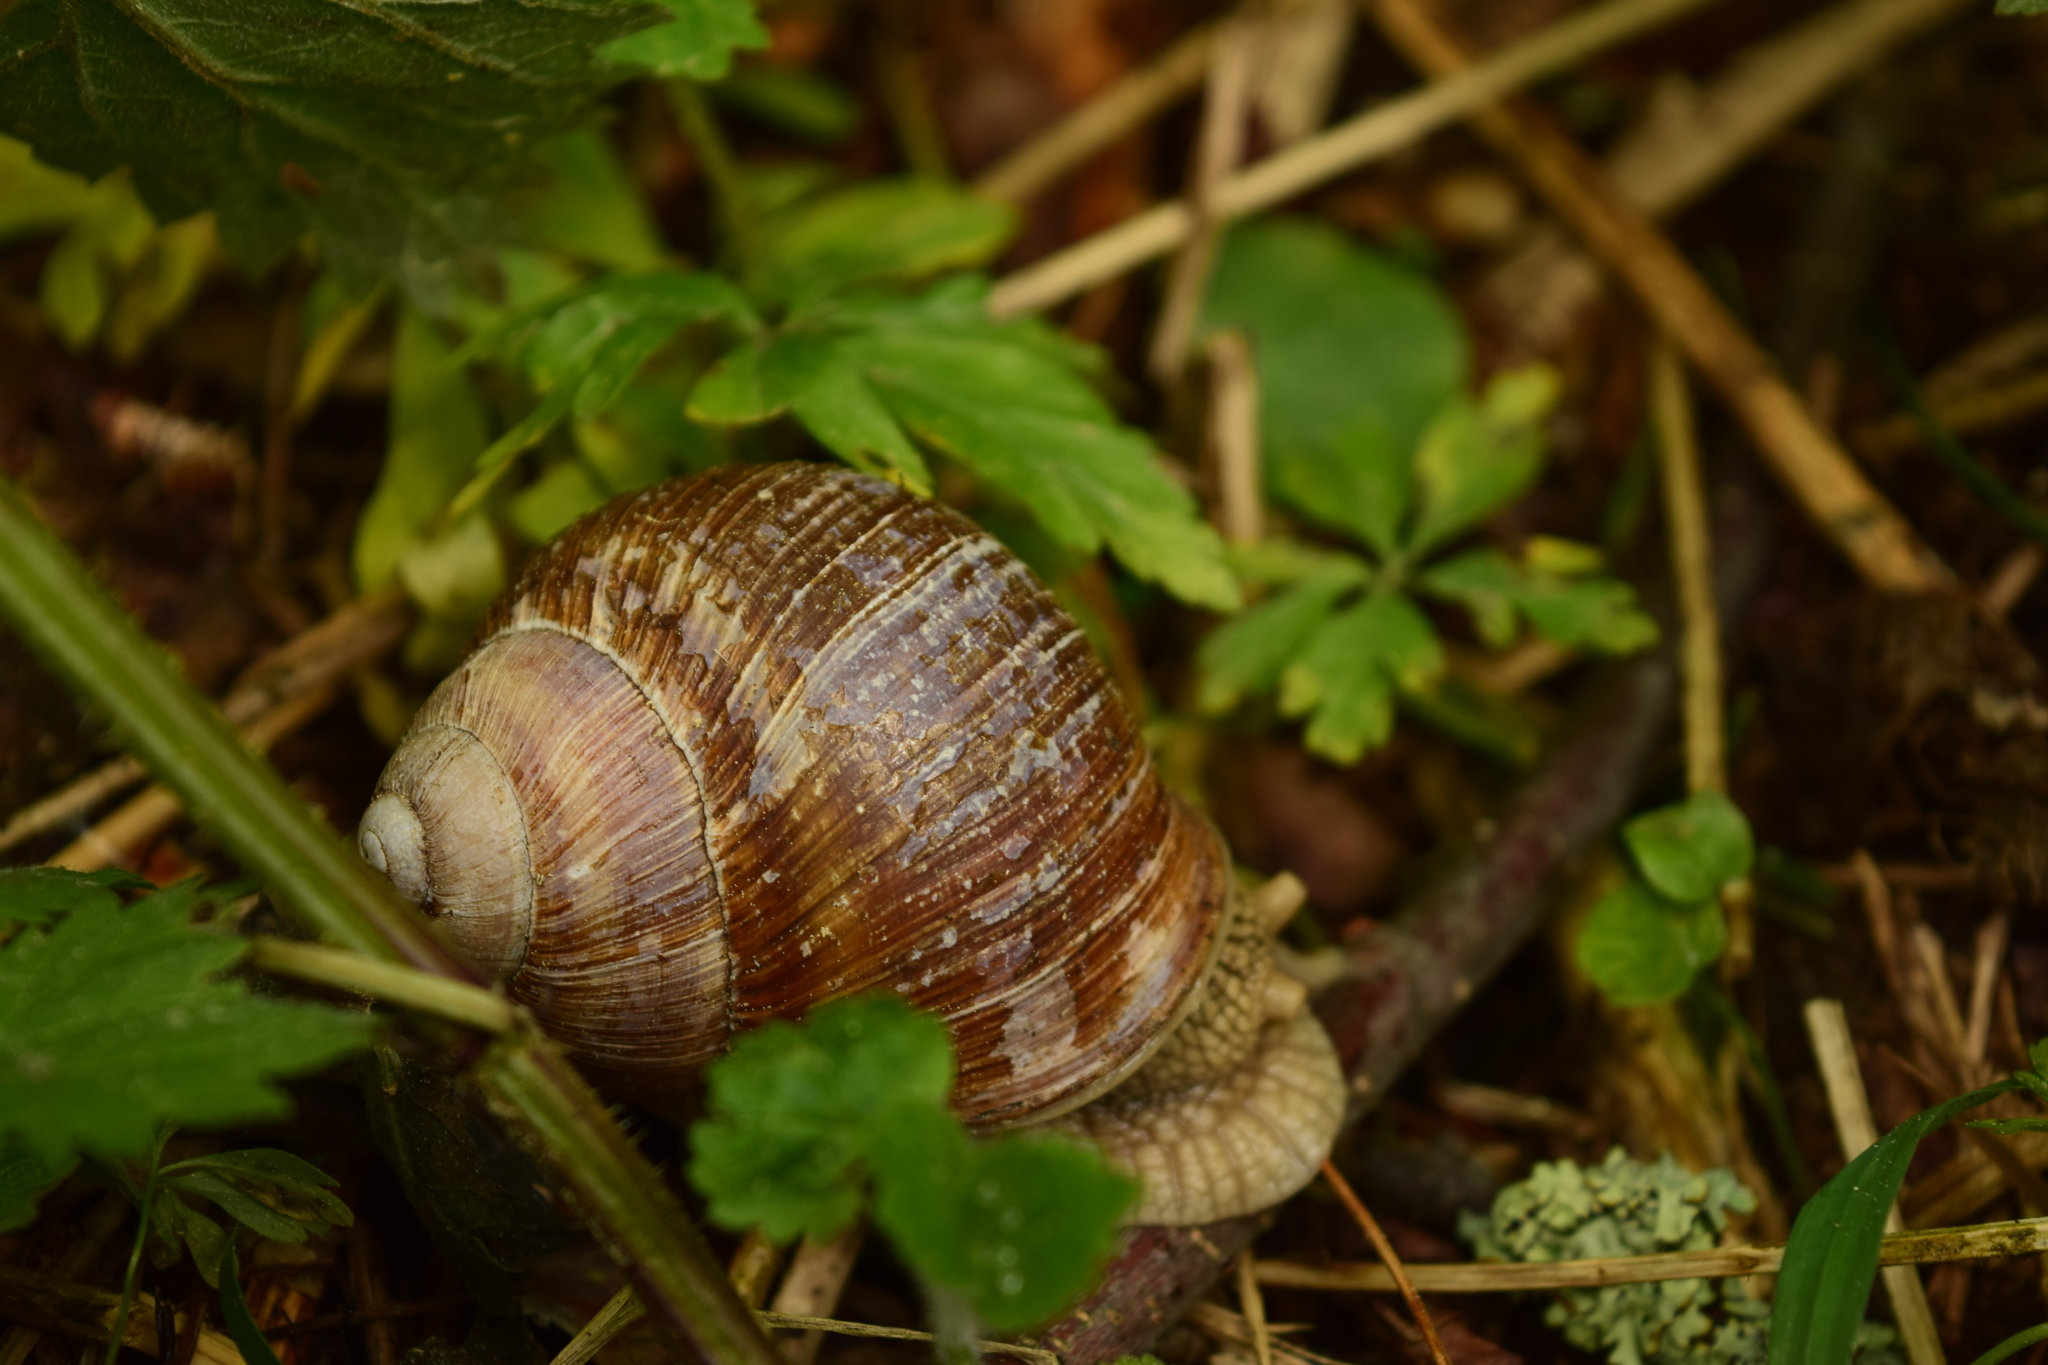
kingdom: Animalia
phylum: Mollusca
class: Gastropoda
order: Stylommatophora
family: Helicidae
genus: Helix
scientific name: Helix pomatia
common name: Roman snail
